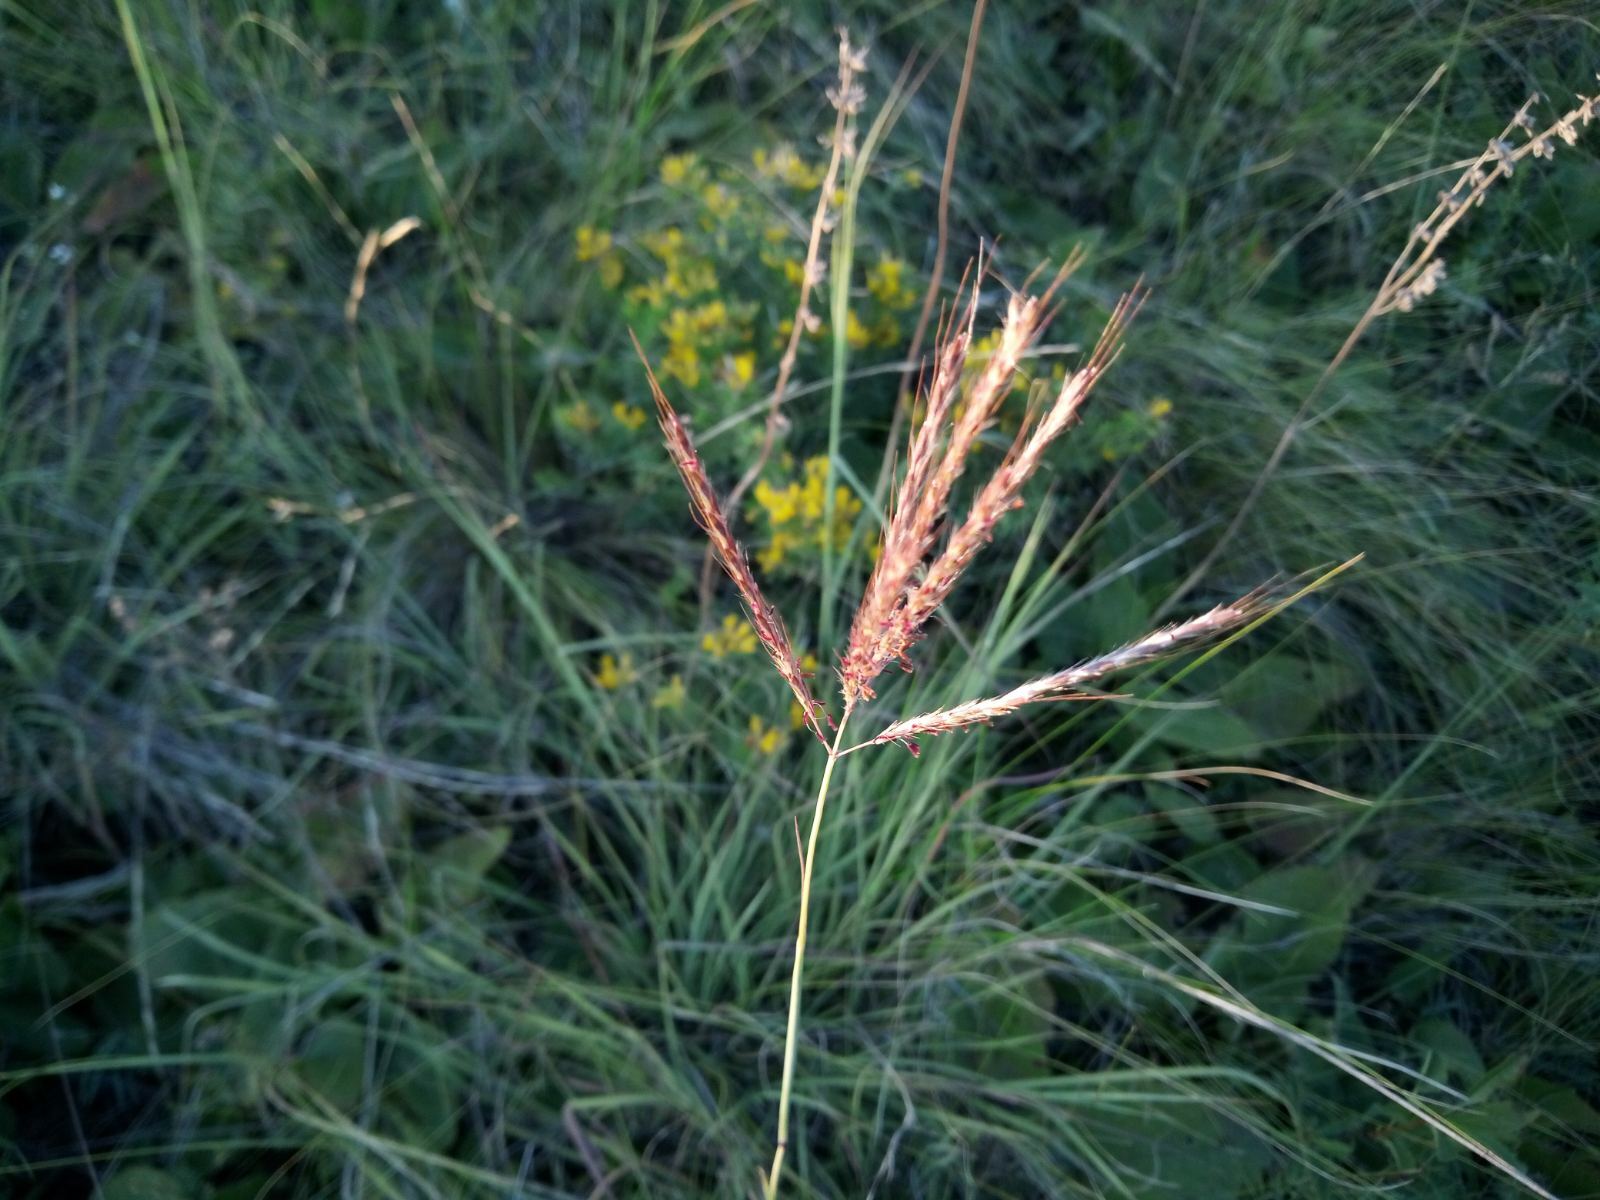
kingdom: Plantae
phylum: Tracheophyta
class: Liliopsida
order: Poales
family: Poaceae
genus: Bothriochloa
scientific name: Bothriochloa ischaemum
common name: Yellow bluestem
